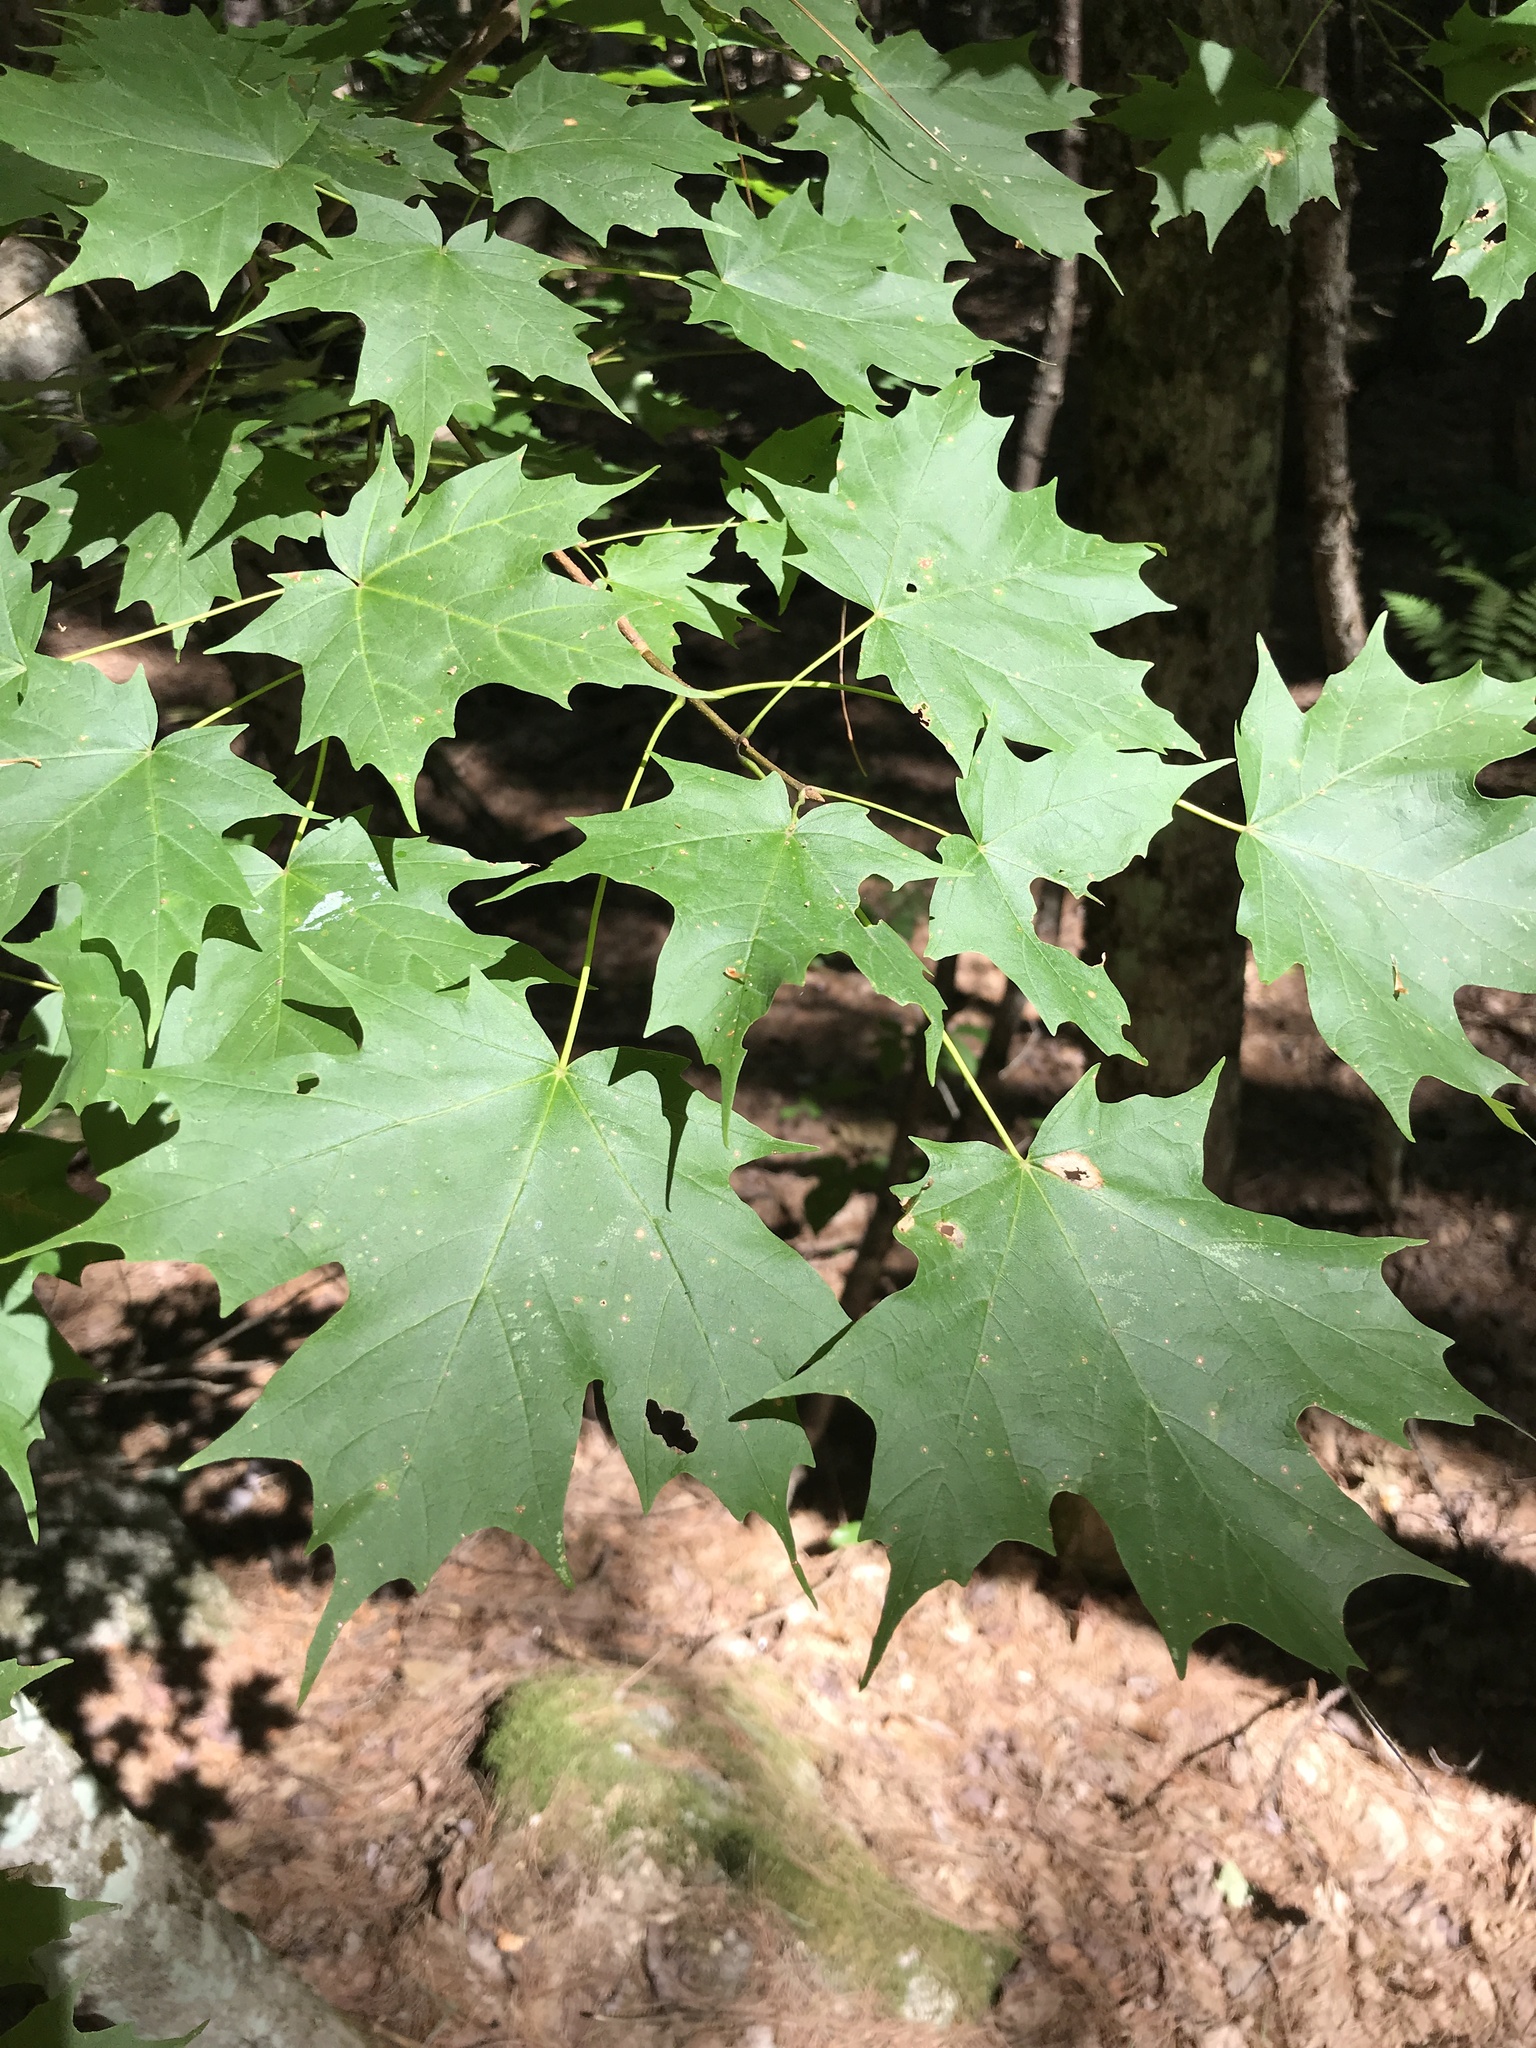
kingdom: Plantae
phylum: Tracheophyta
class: Magnoliopsida
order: Sapindales
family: Sapindaceae
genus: Acer
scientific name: Acer saccharum
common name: Sugar maple
